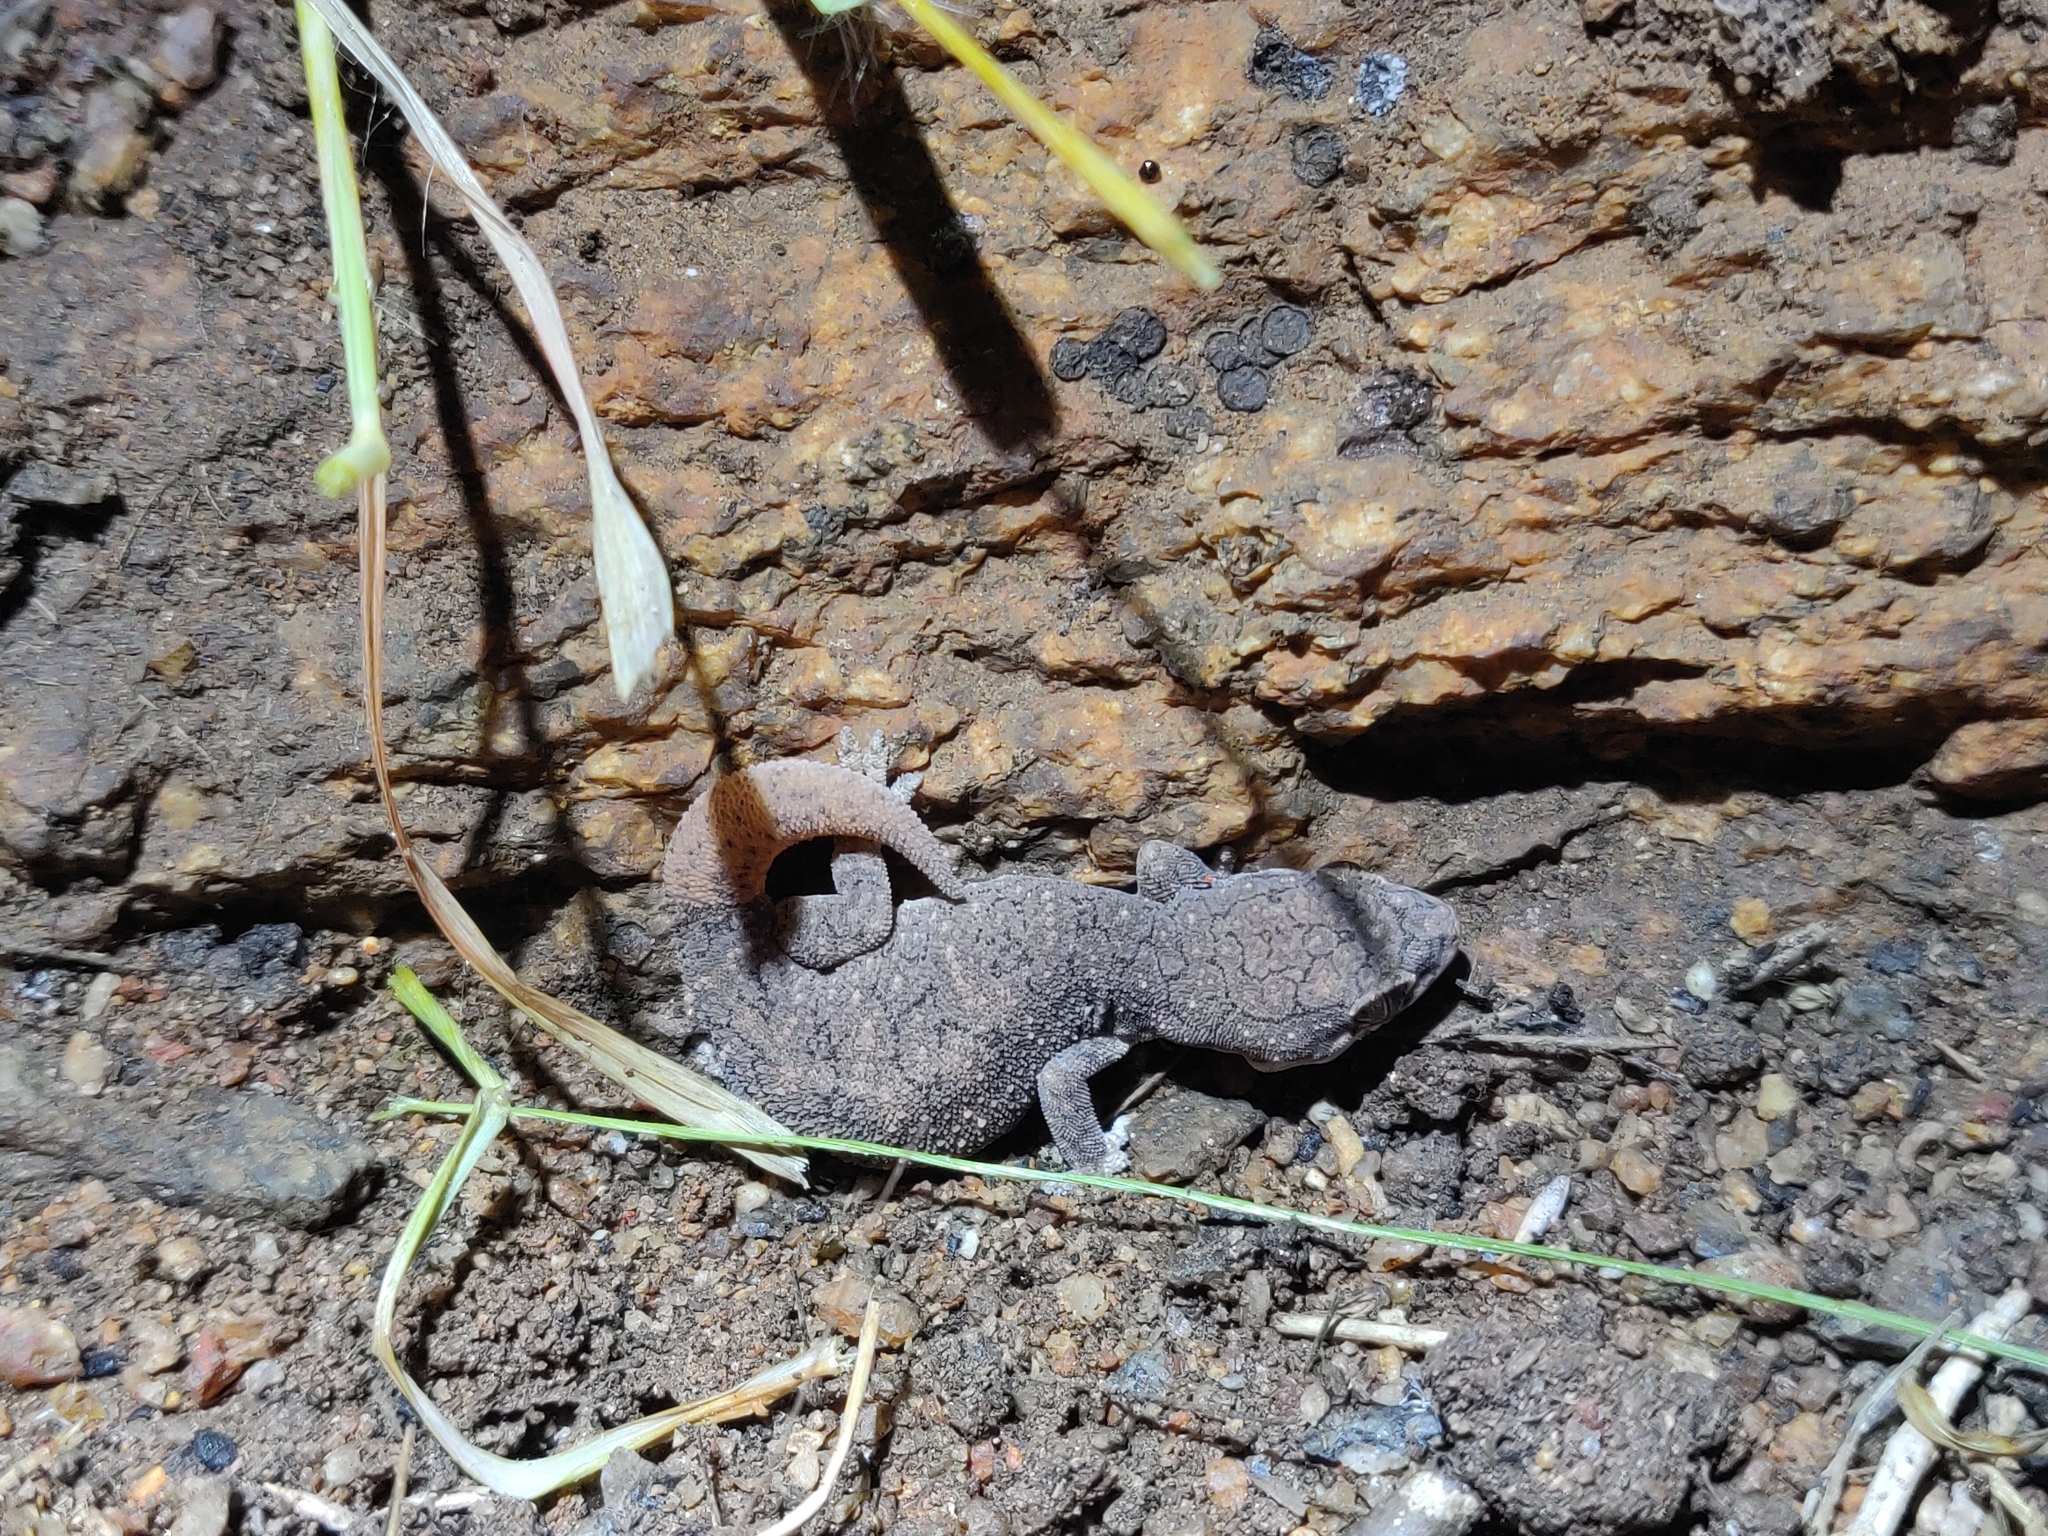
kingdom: Animalia
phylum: Chordata
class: Squamata
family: Gekkonidae
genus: Hemidactylus
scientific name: Hemidactylus reticulatus
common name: Reticulate leaf-toed gecko
